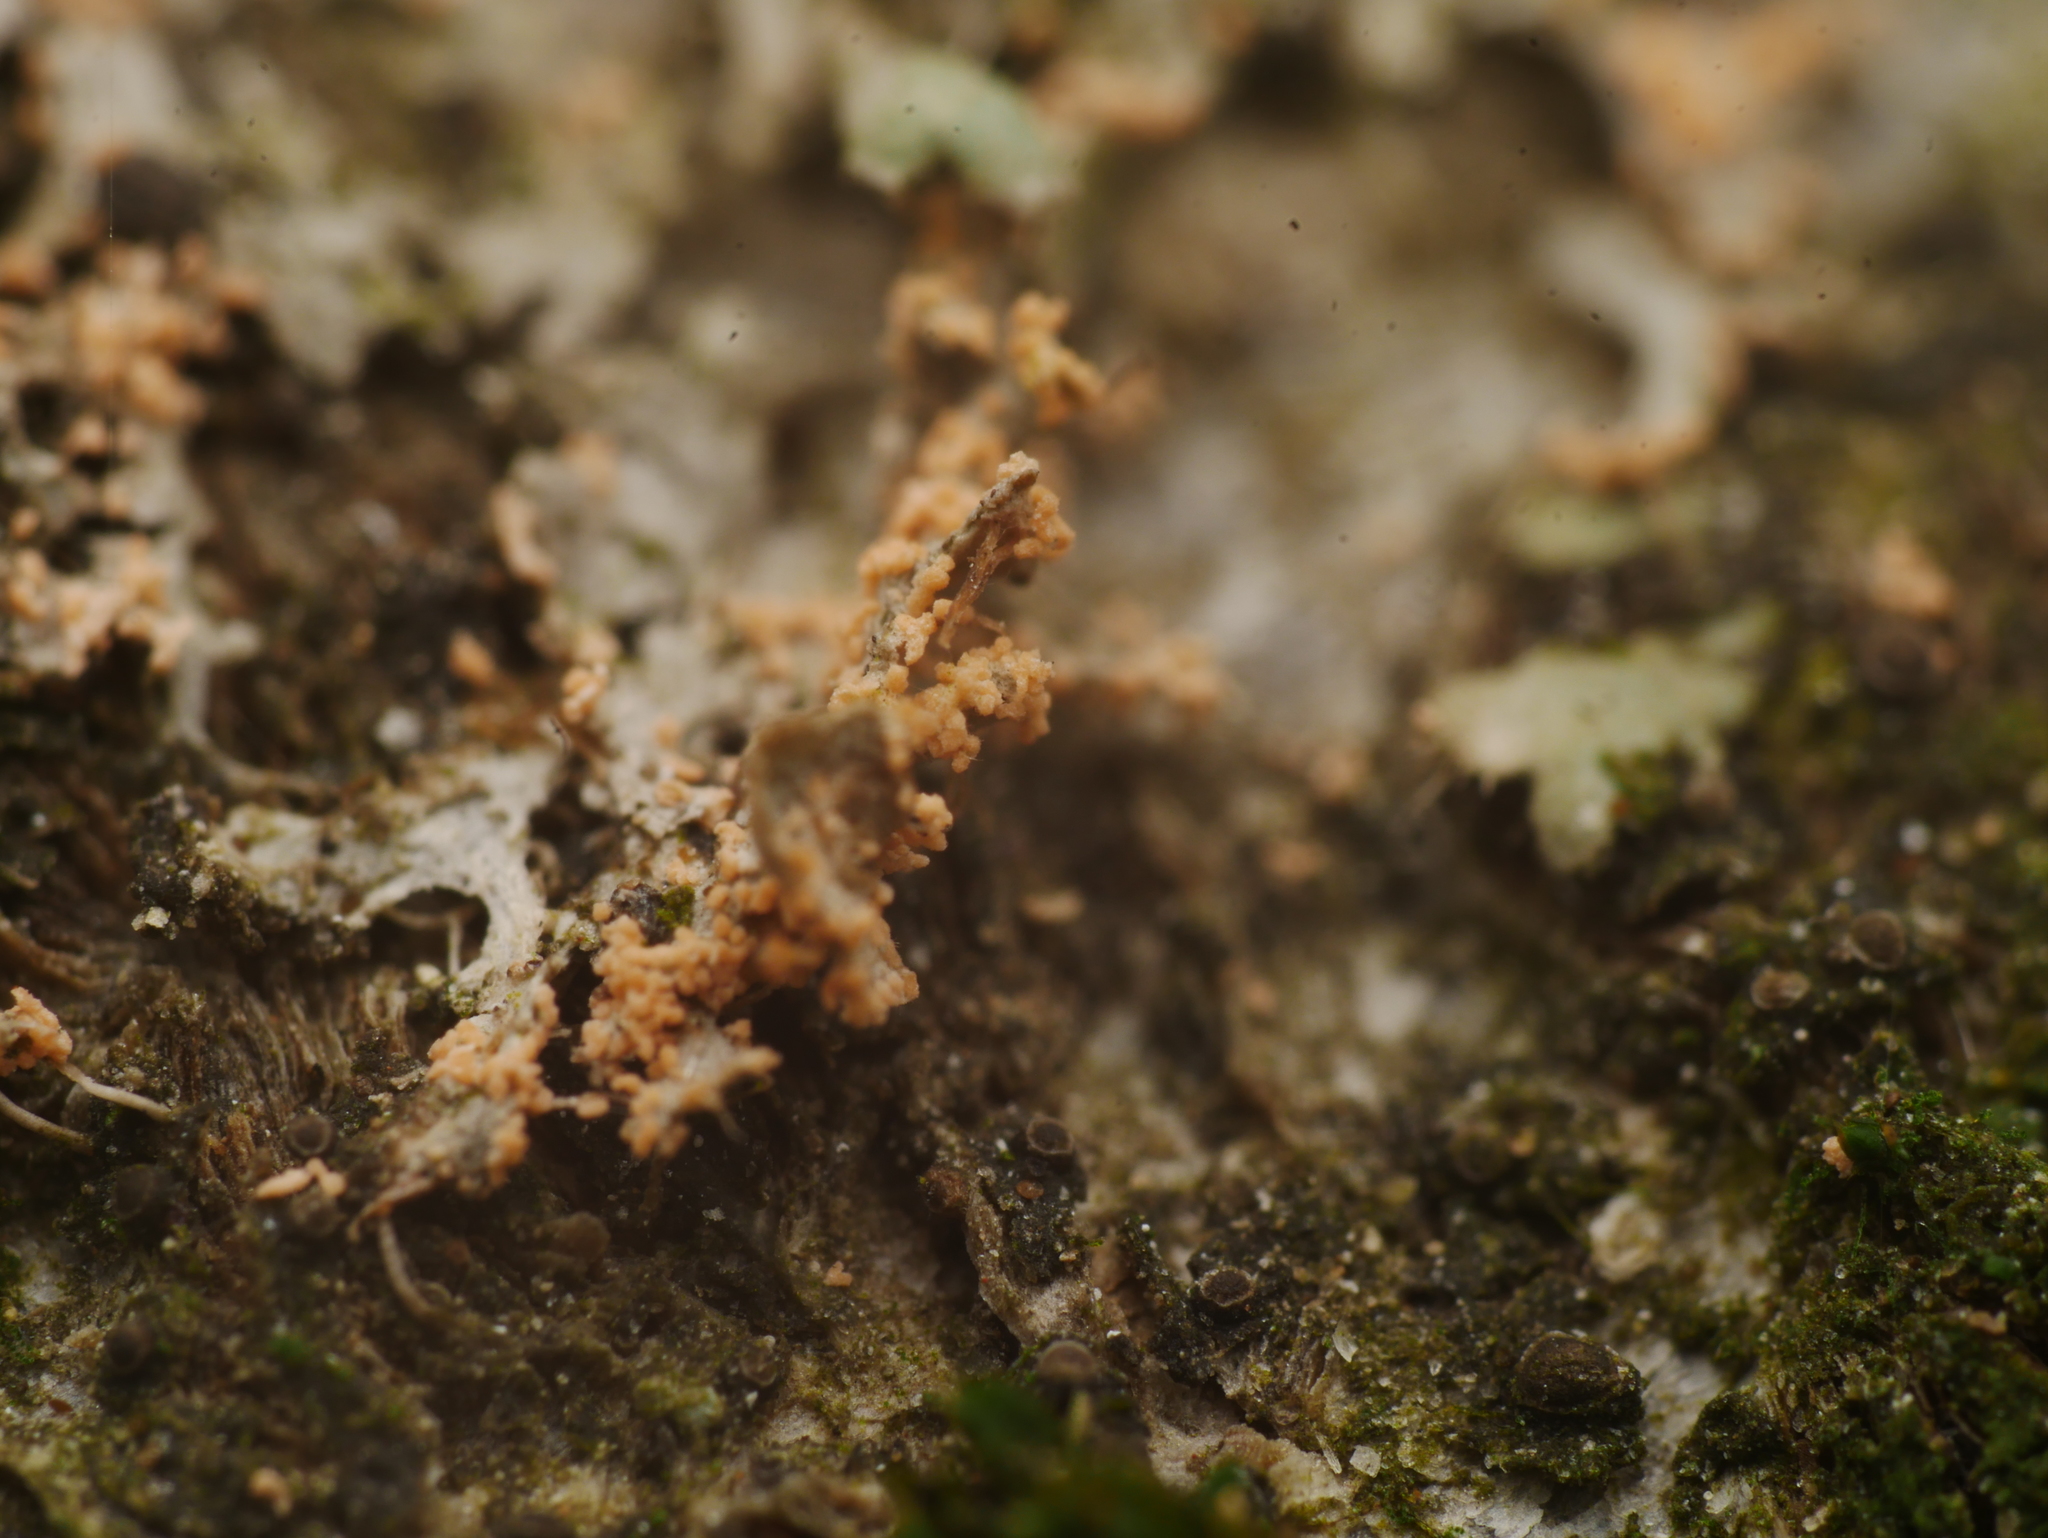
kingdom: Fungi
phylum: Basidiomycota
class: Agaricomycetes
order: Corticiales
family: Corticiaceae
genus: Erythricium
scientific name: Erythricium aurantiacum
